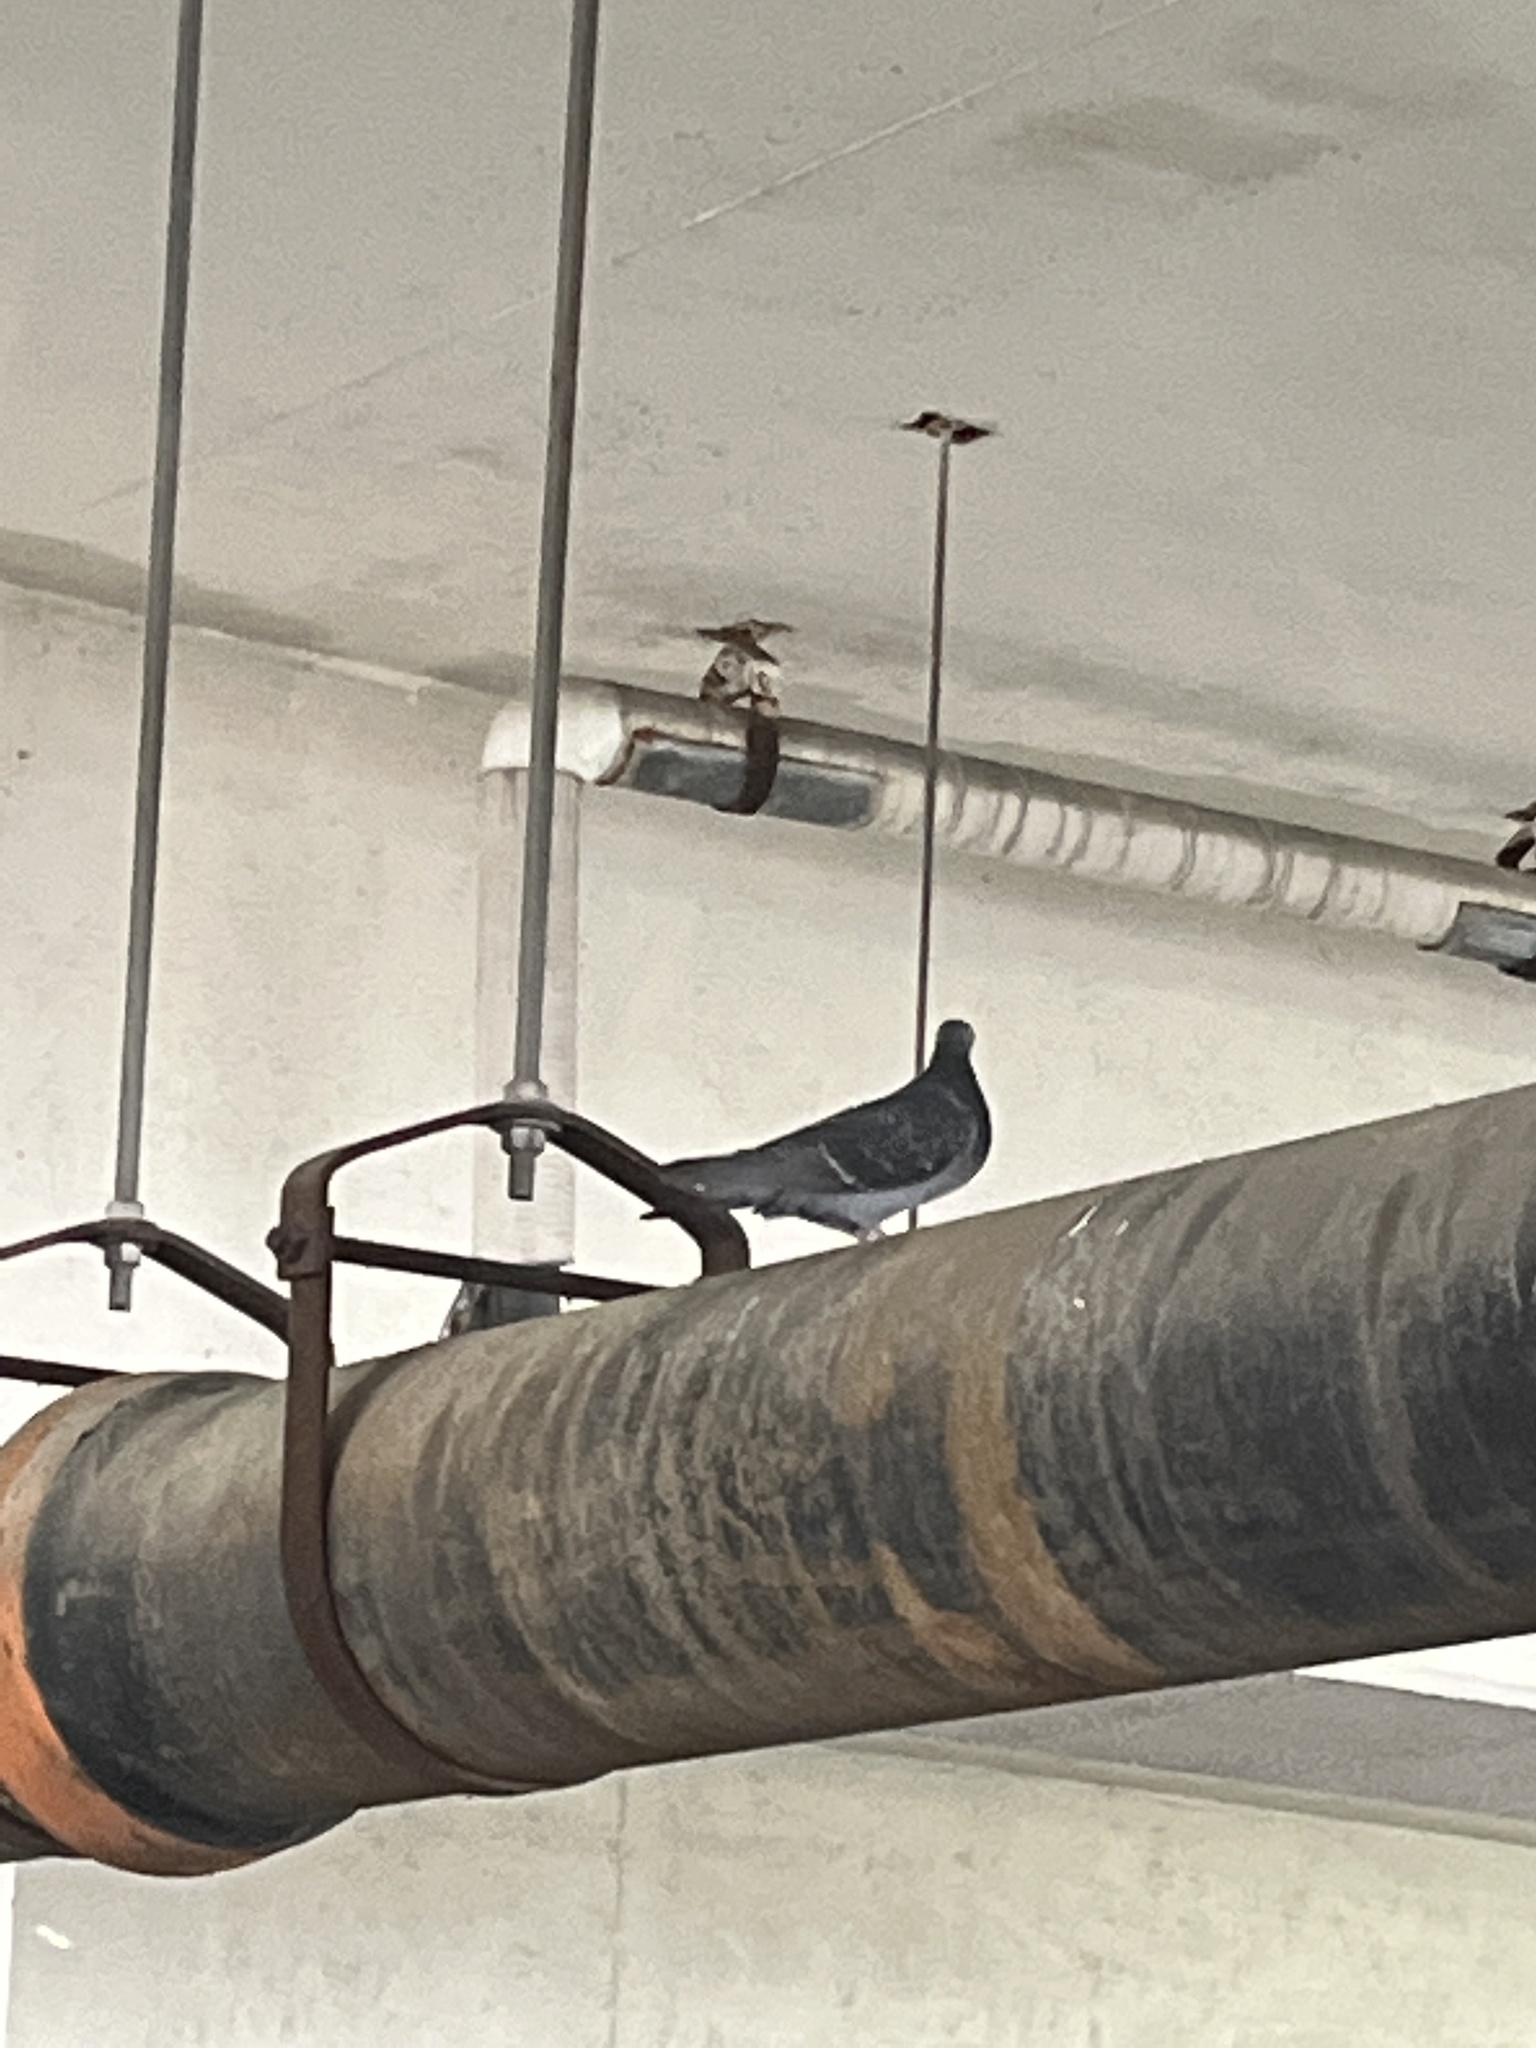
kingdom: Animalia
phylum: Chordata
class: Aves
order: Columbiformes
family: Columbidae
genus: Columba
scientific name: Columba livia
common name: Rock pigeon
